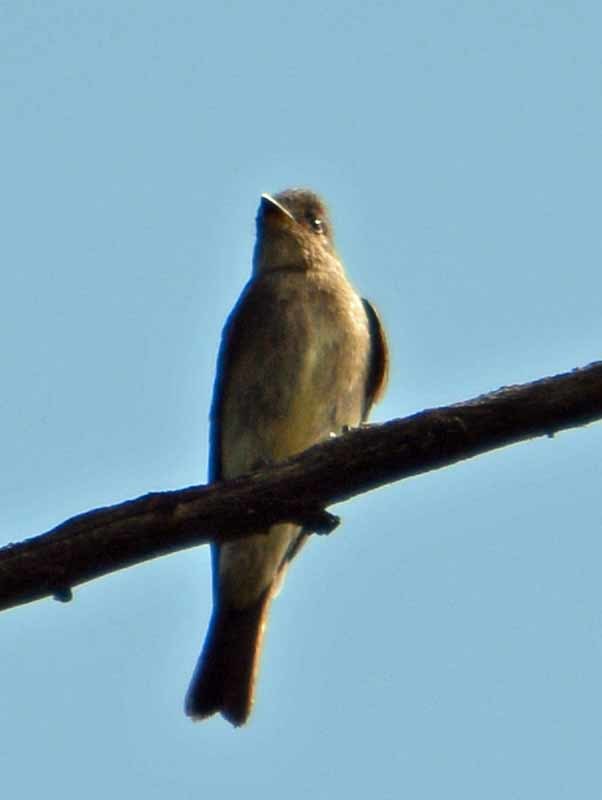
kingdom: Animalia
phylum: Chordata
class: Aves
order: Passeriformes
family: Tyrannidae
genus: Contopus
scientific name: Contopus sordidulus
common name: Western wood-pewee
